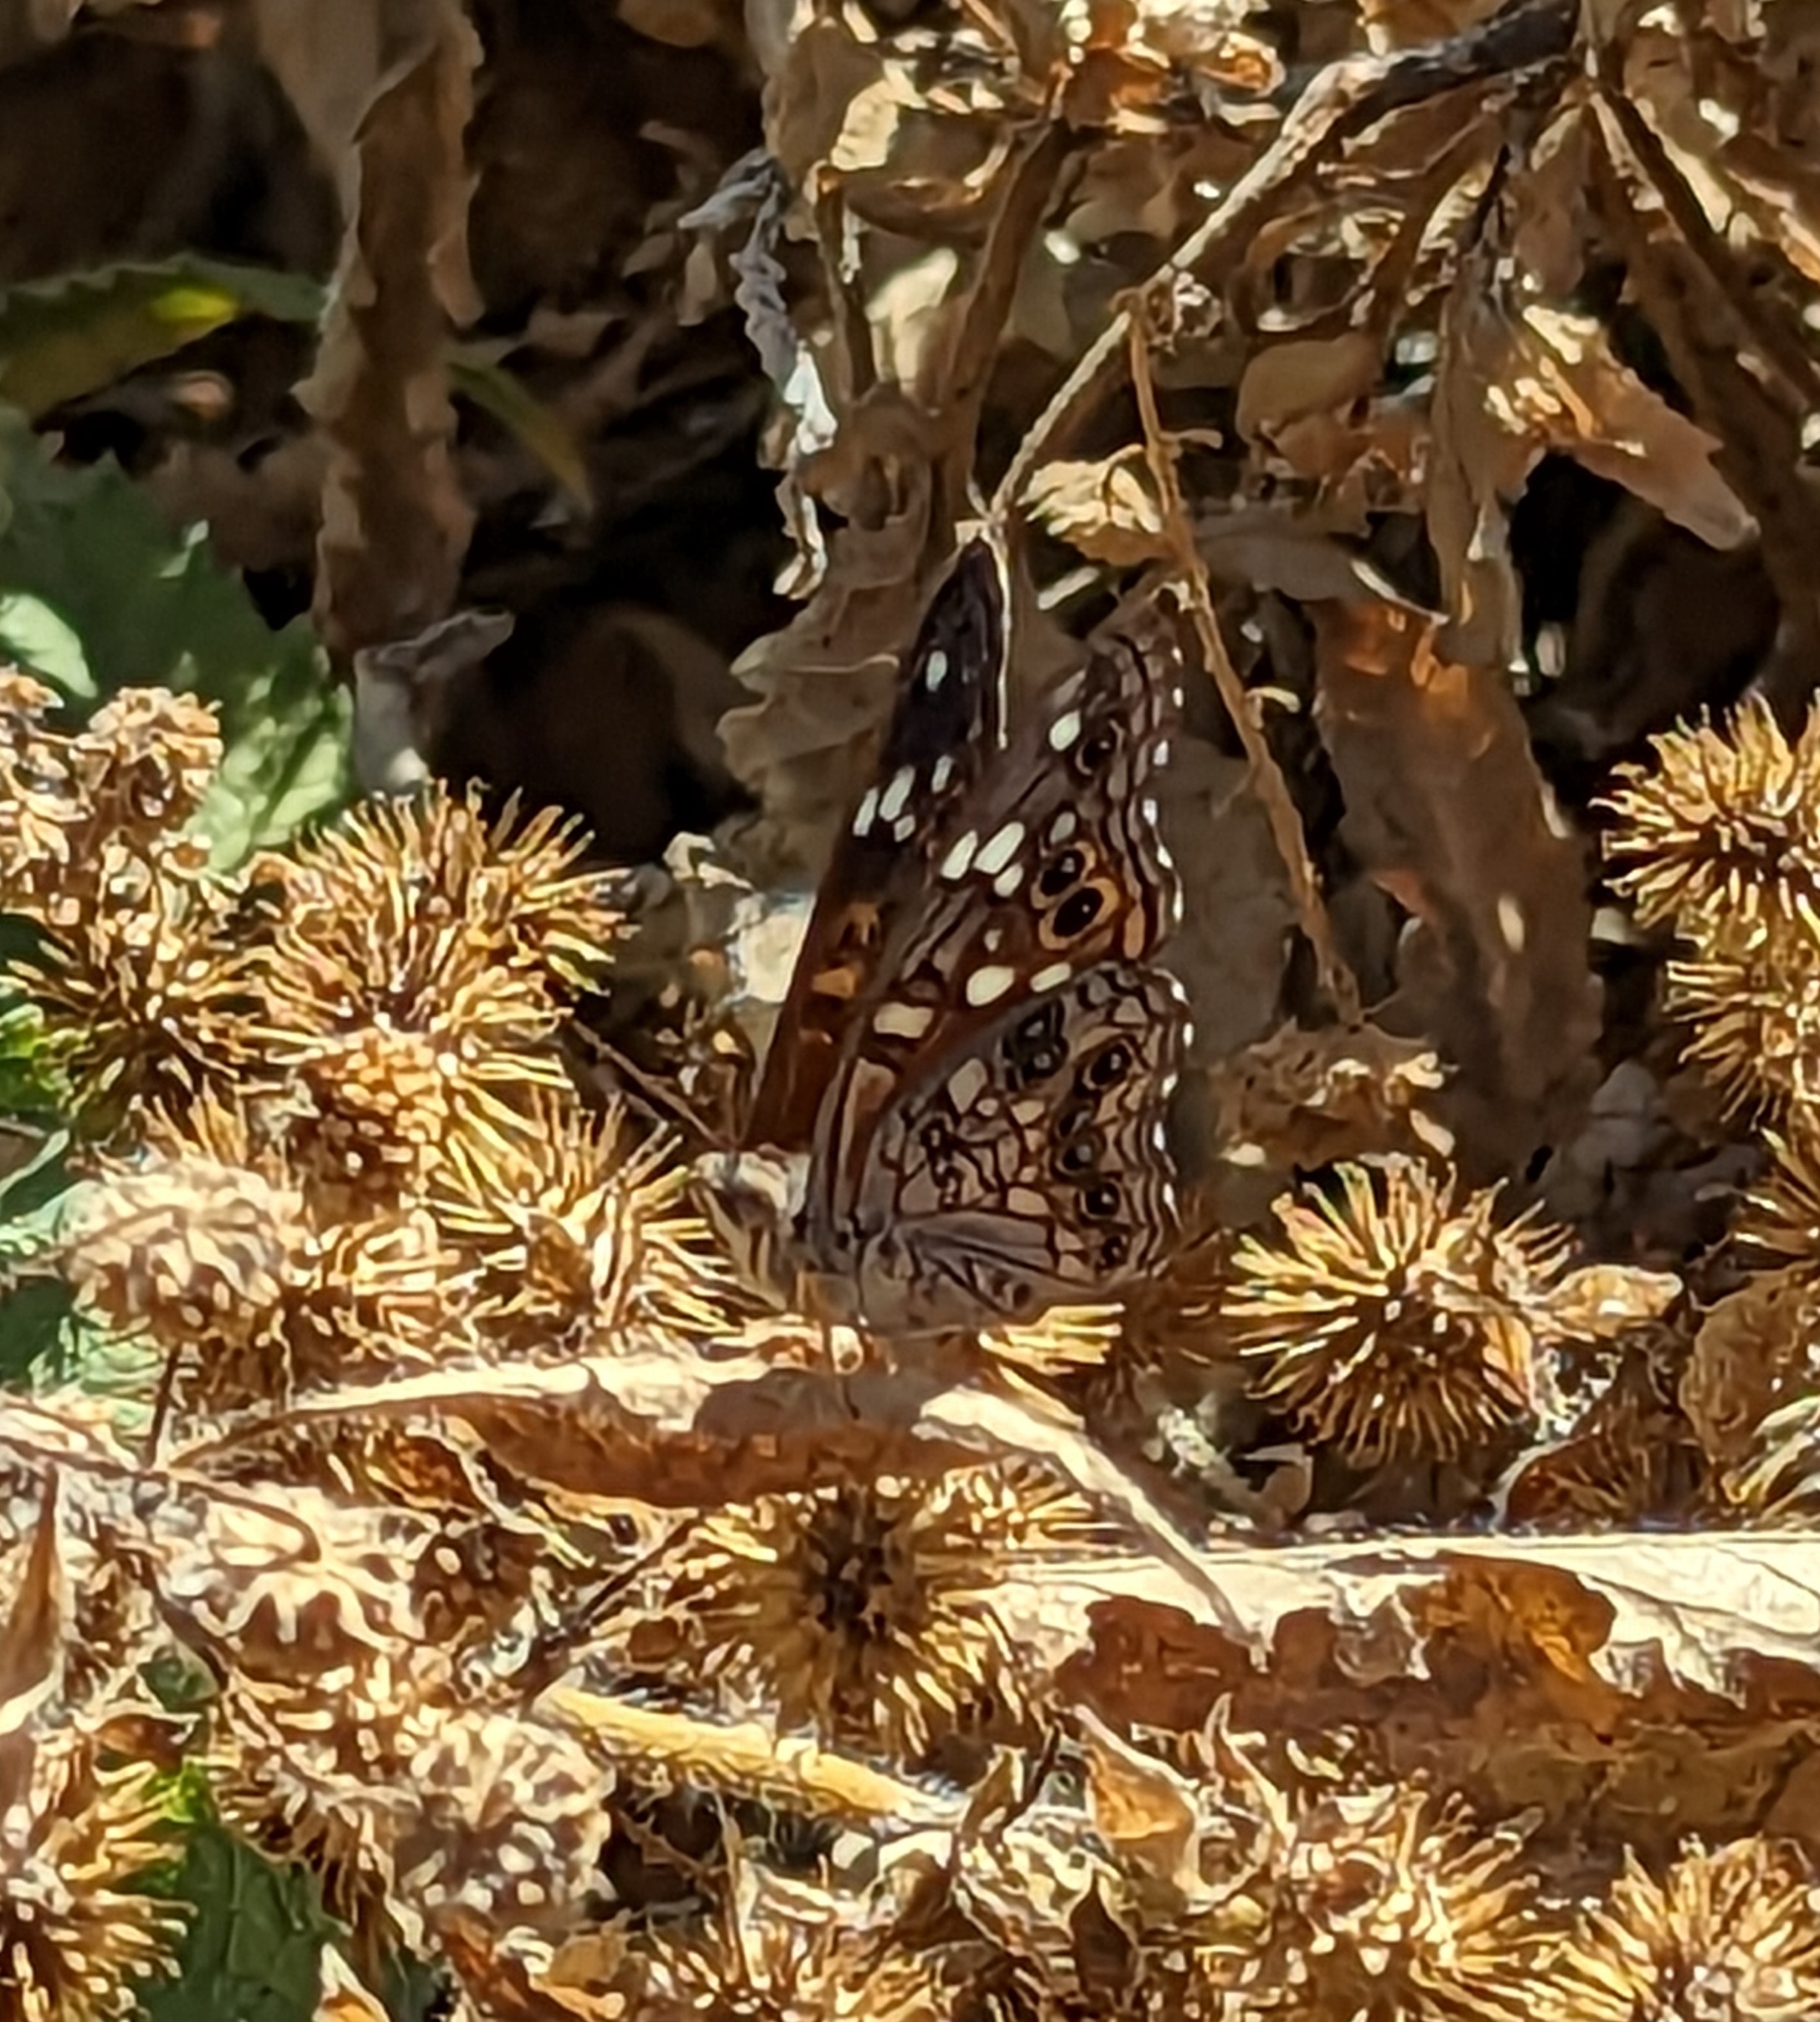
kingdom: Animalia
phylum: Arthropoda
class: Insecta
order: Lepidoptera
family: Nymphalidae
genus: Asterocampa
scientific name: Asterocampa leilia
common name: Empress leilia
